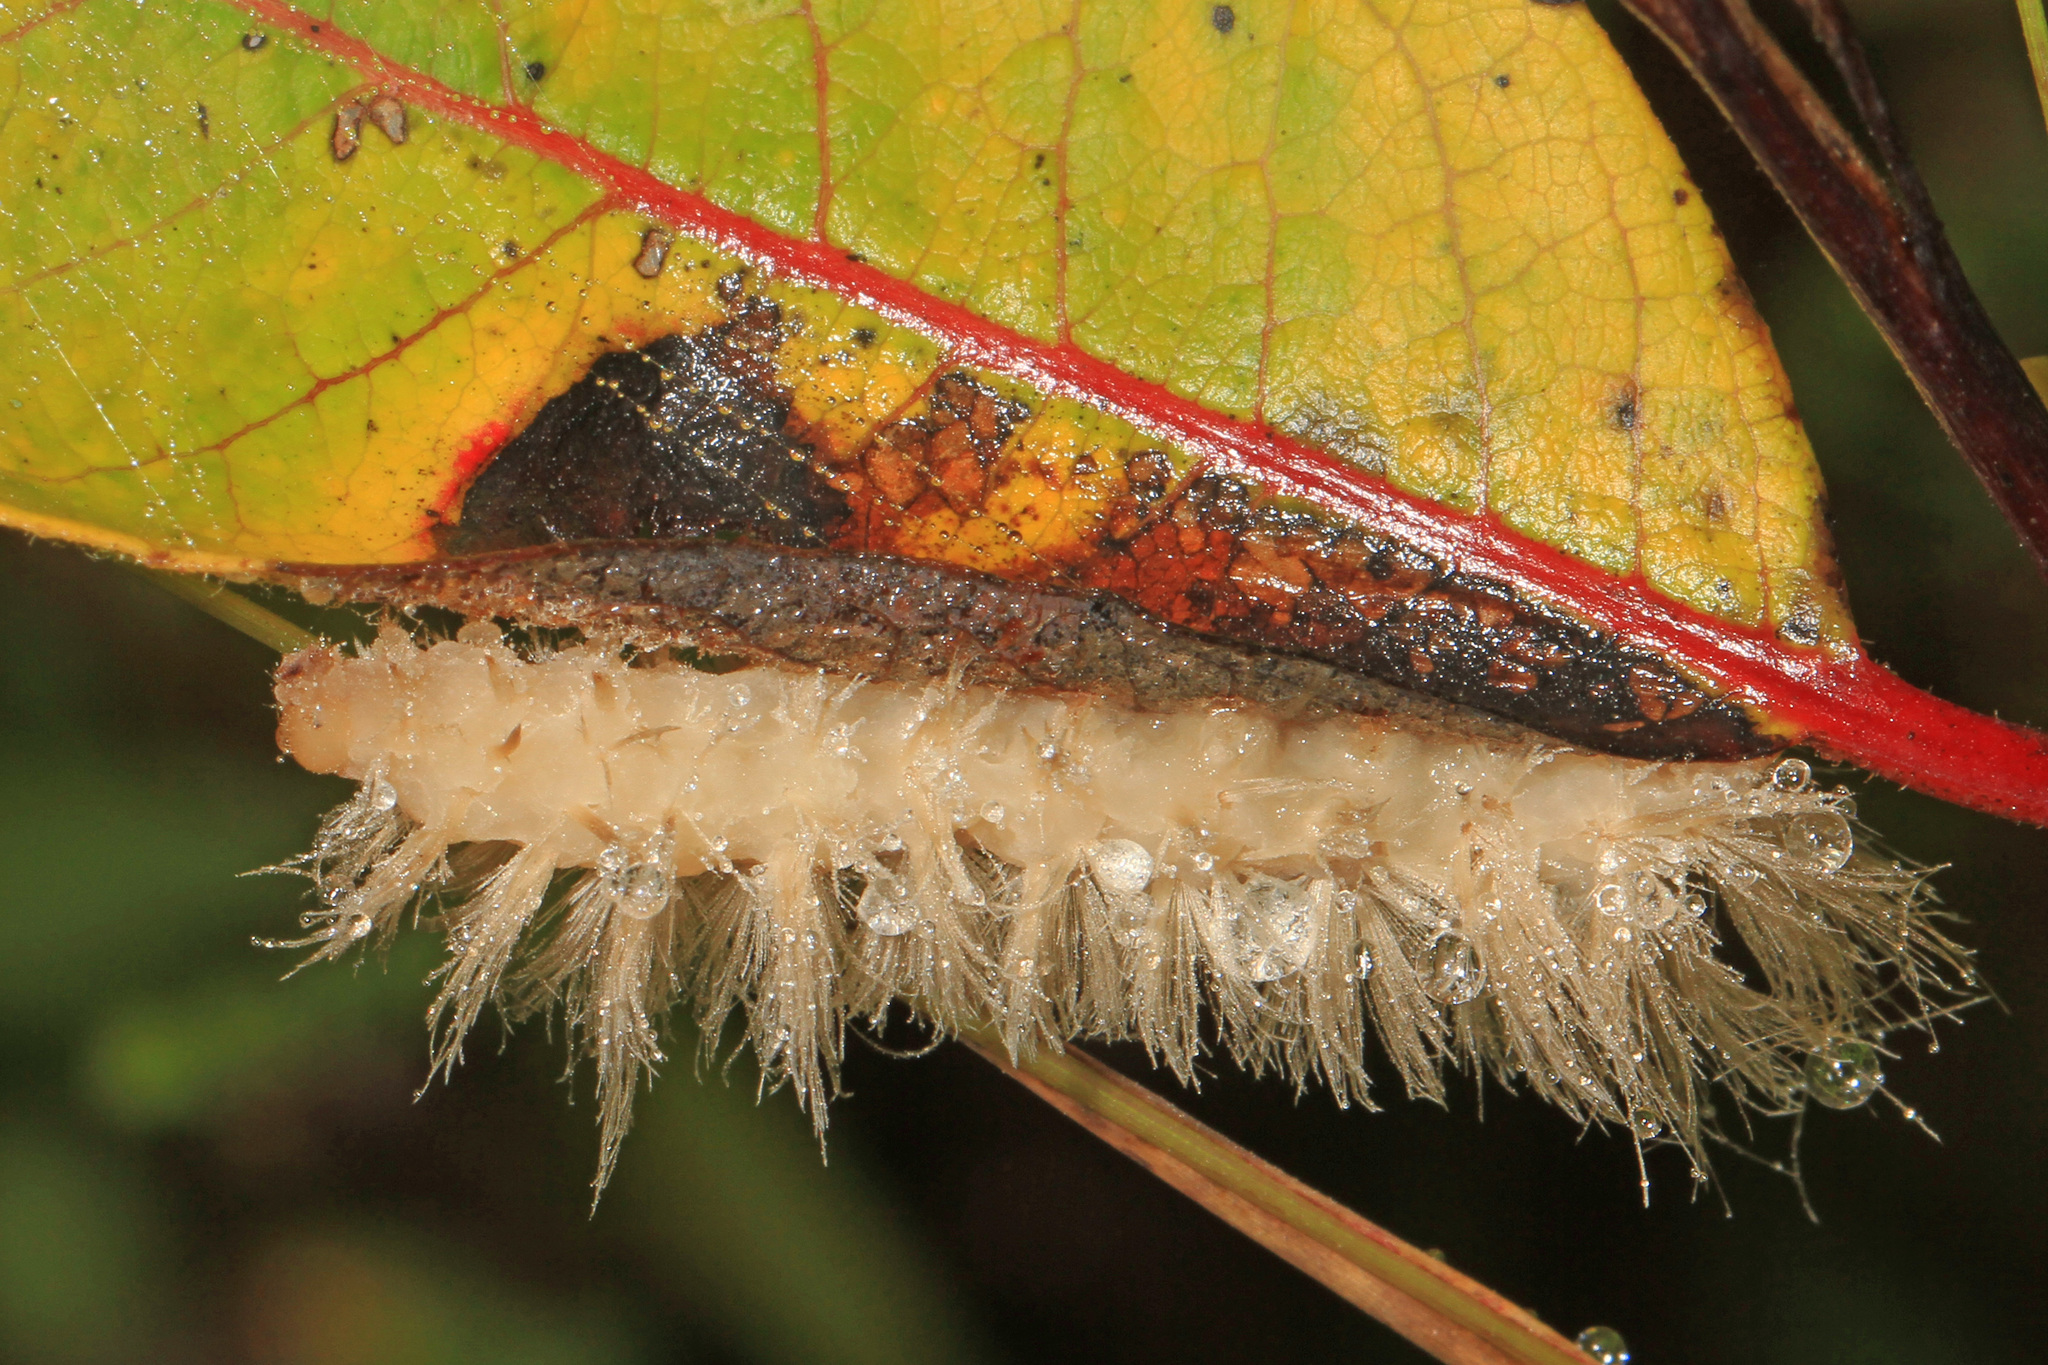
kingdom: Animalia
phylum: Arthropoda
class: Insecta
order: Lepidoptera
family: Erebidae
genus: Cycnia
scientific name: Cycnia tenera
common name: Delicate cycnia moth
